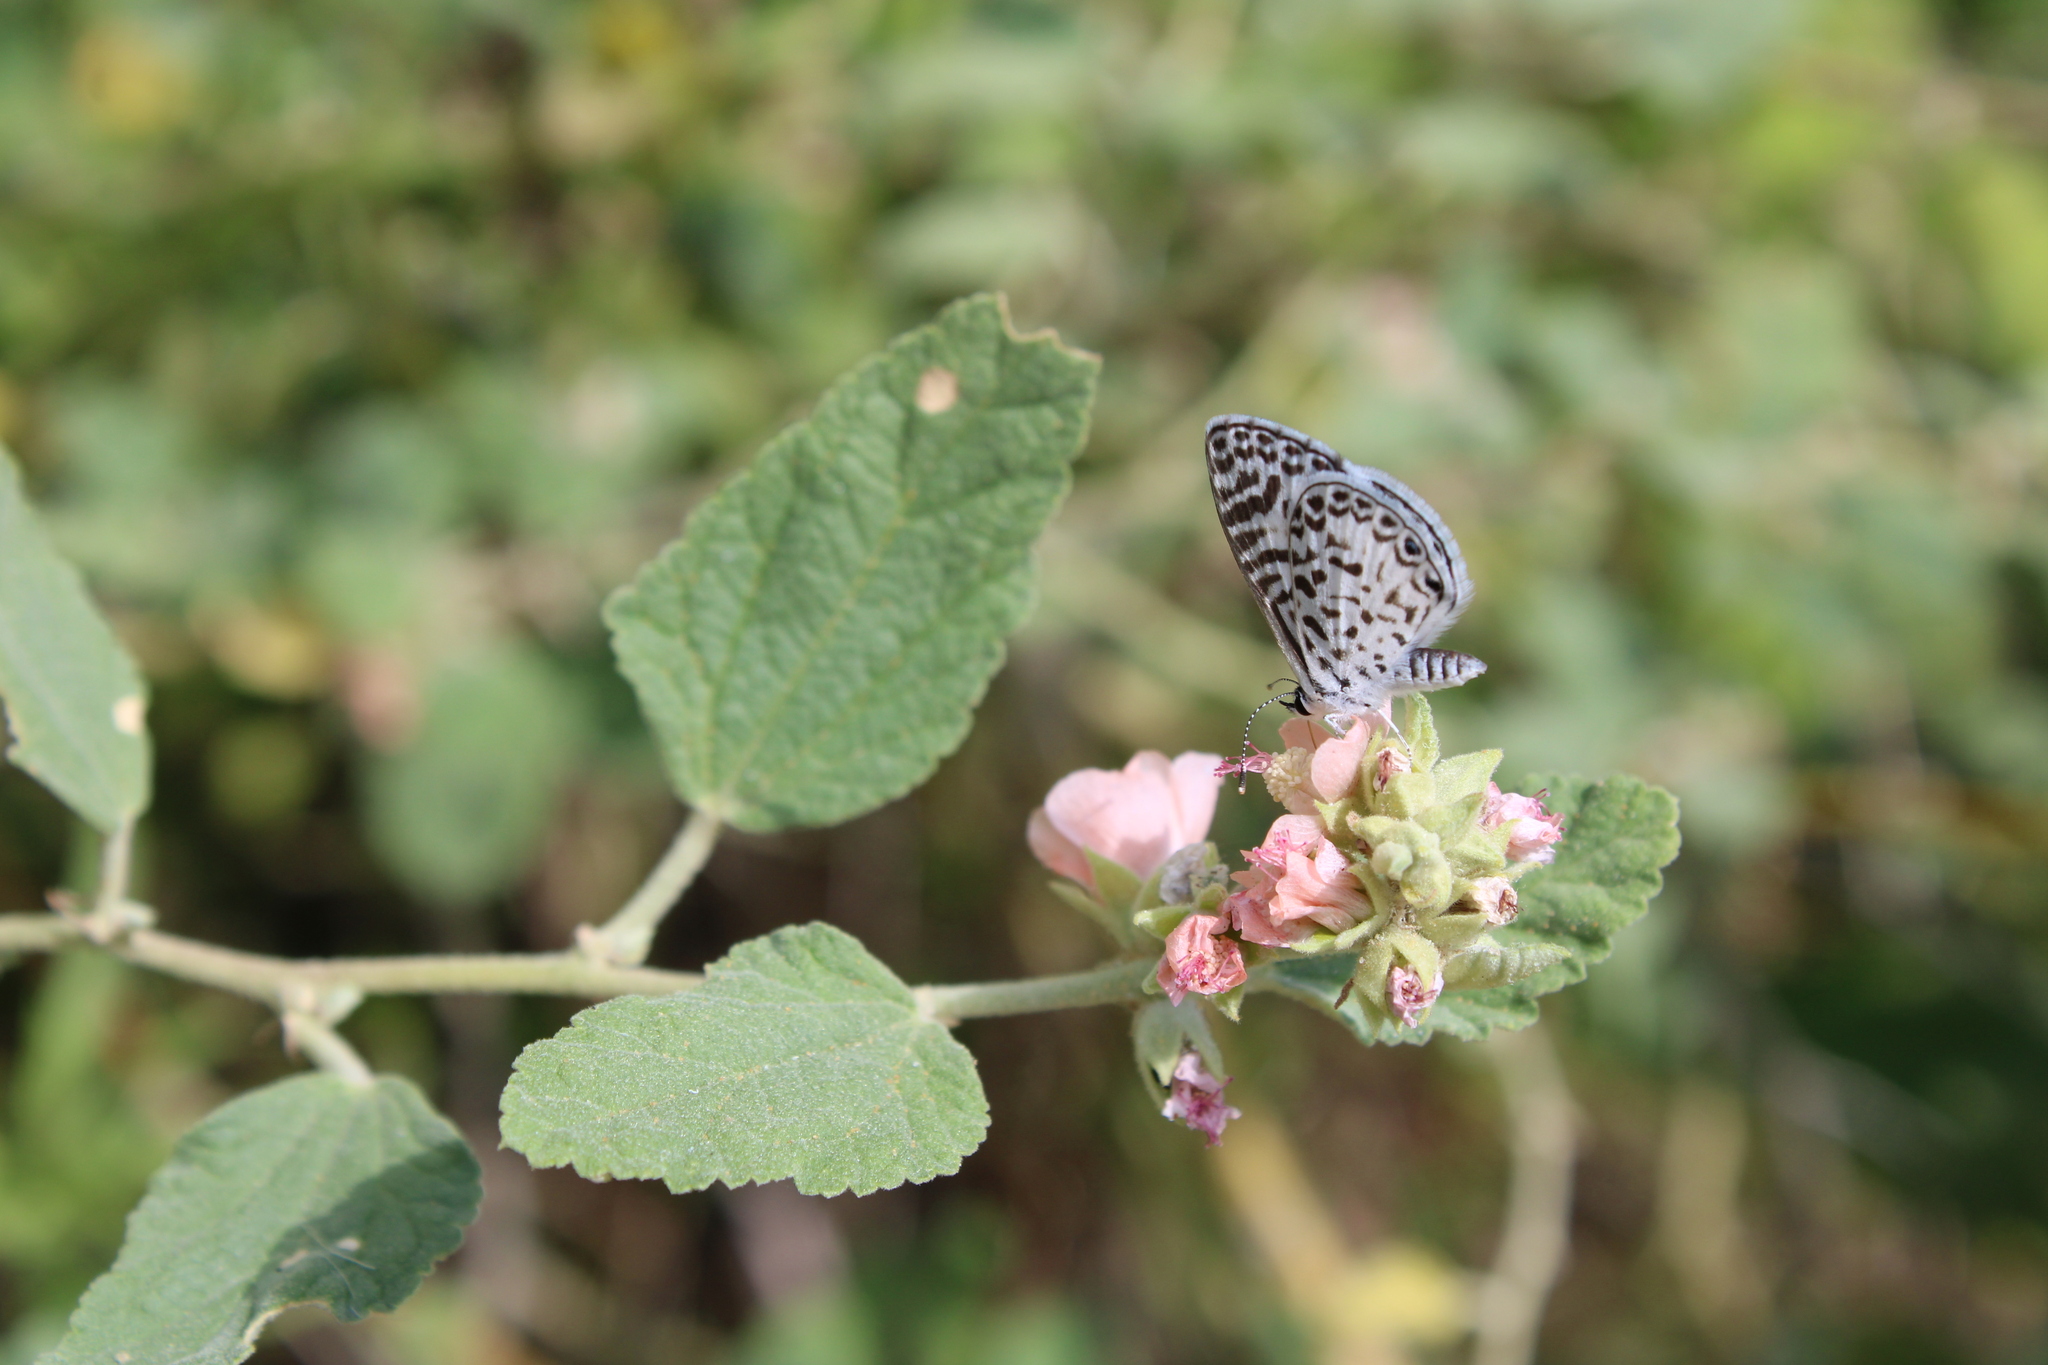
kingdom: Animalia
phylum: Arthropoda
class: Insecta
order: Lepidoptera
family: Lycaenidae
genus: Leptotes
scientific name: Leptotes cassius
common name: Cassius blue
